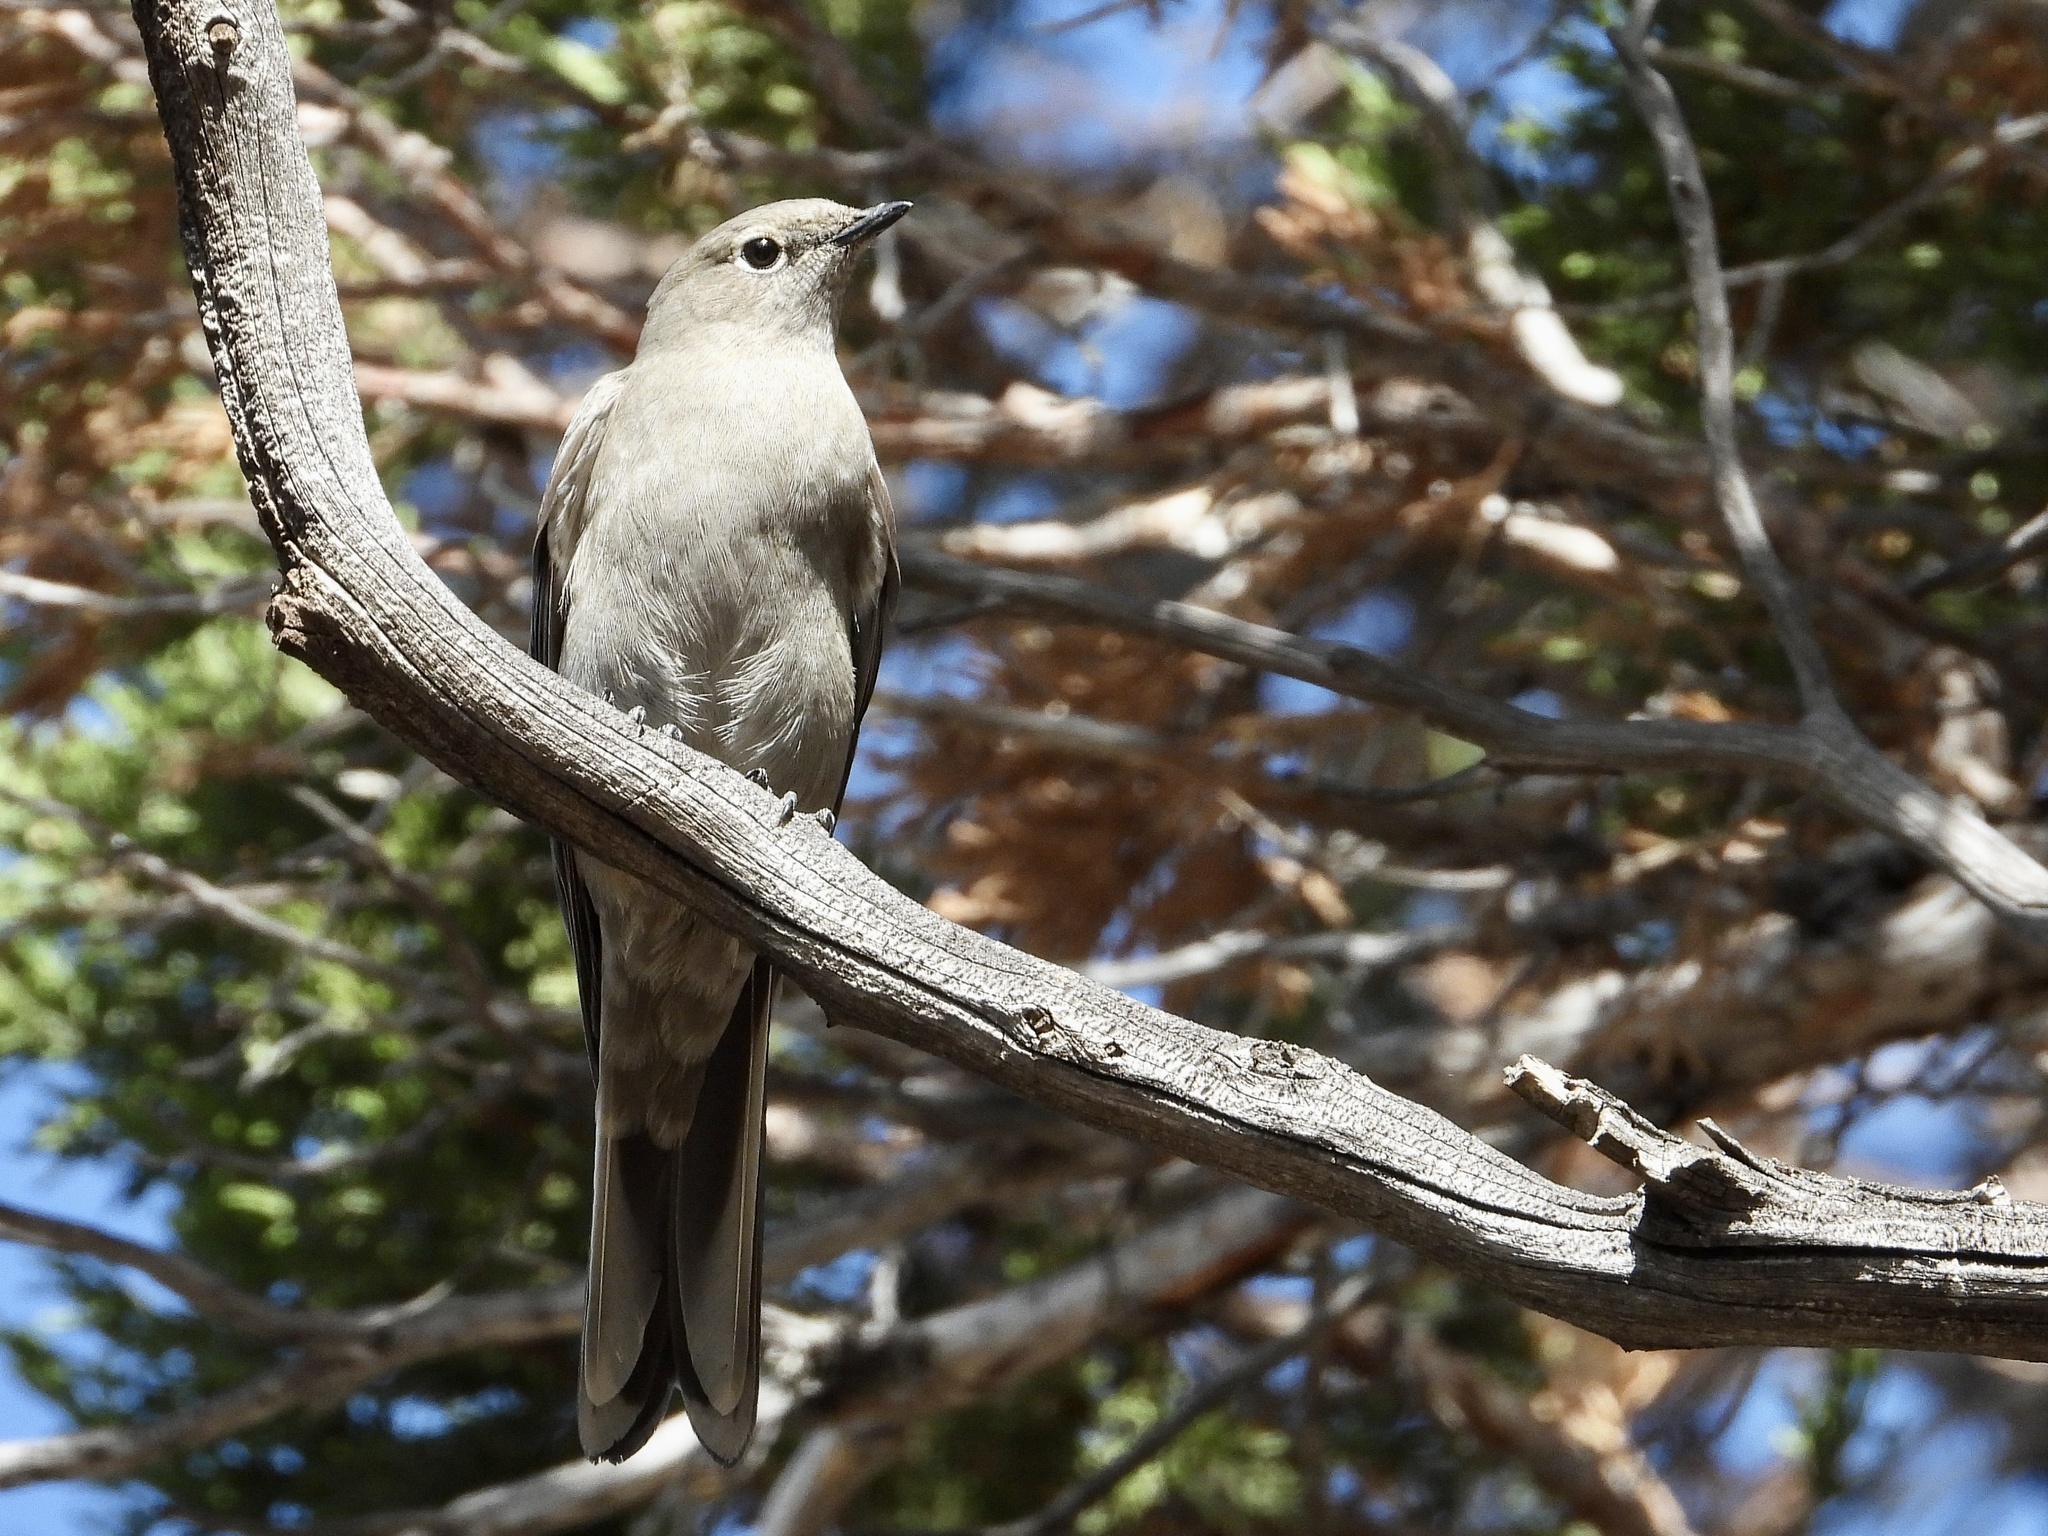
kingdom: Animalia
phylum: Chordata
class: Aves
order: Passeriformes
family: Turdidae
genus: Myadestes
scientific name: Myadestes townsendi
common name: Townsend's solitaire
